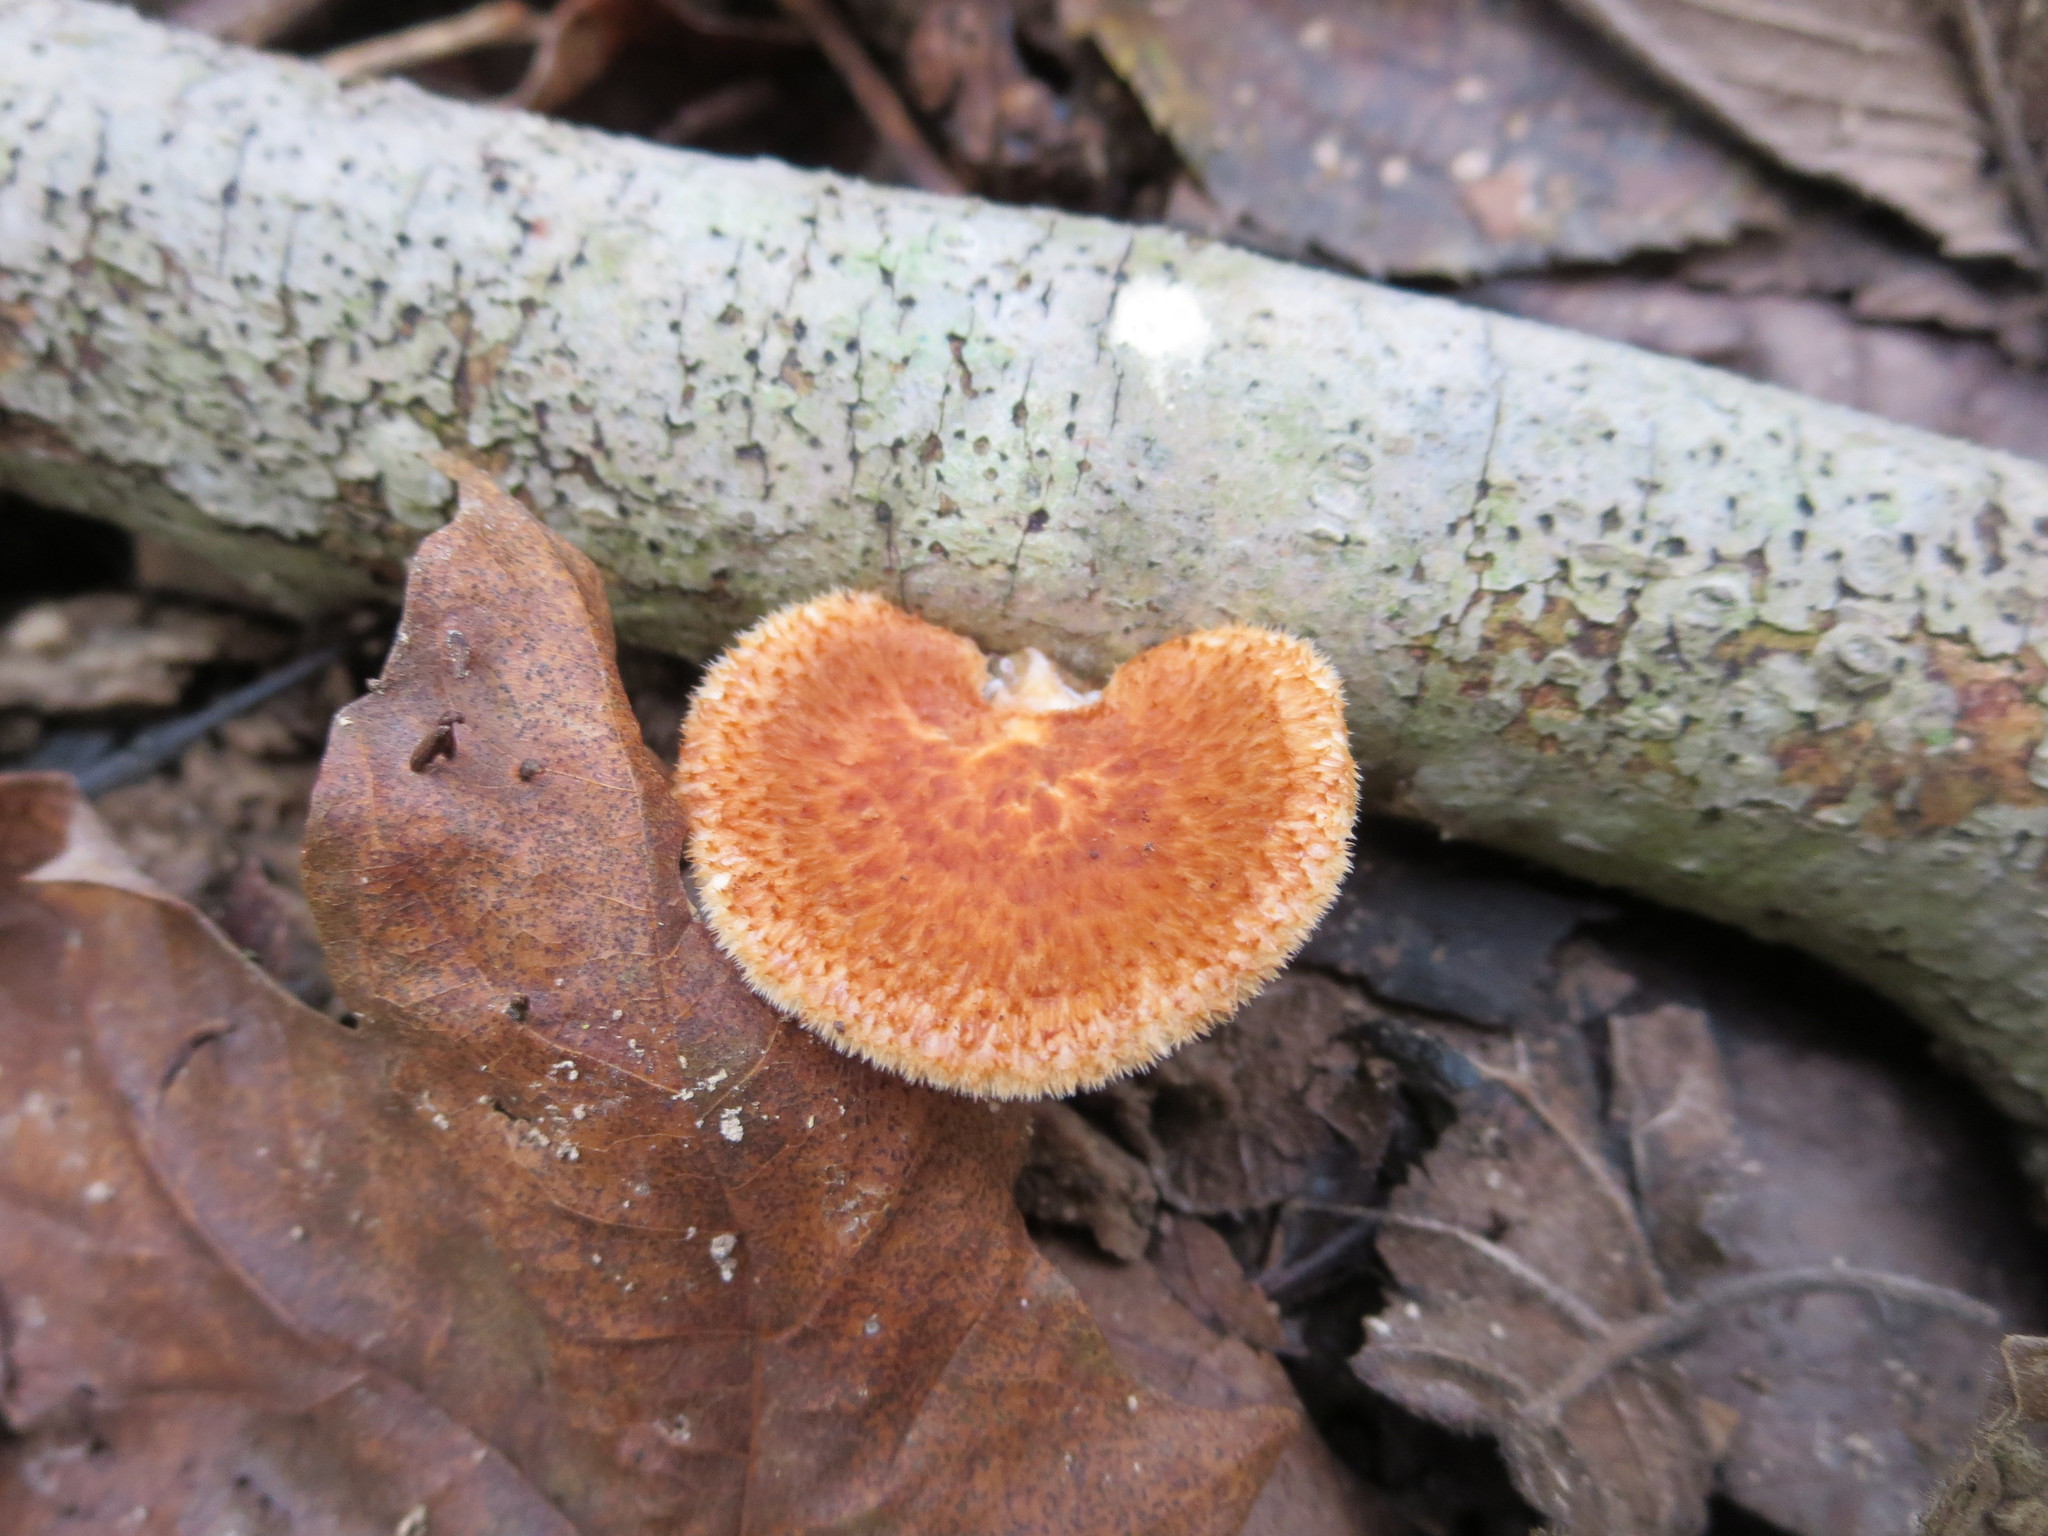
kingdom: Fungi
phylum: Basidiomycota
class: Agaricomycetes
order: Polyporales
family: Polyporaceae
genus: Neofavolus
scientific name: Neofavolus alveolaris
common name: Hexagonal-pored polypore
